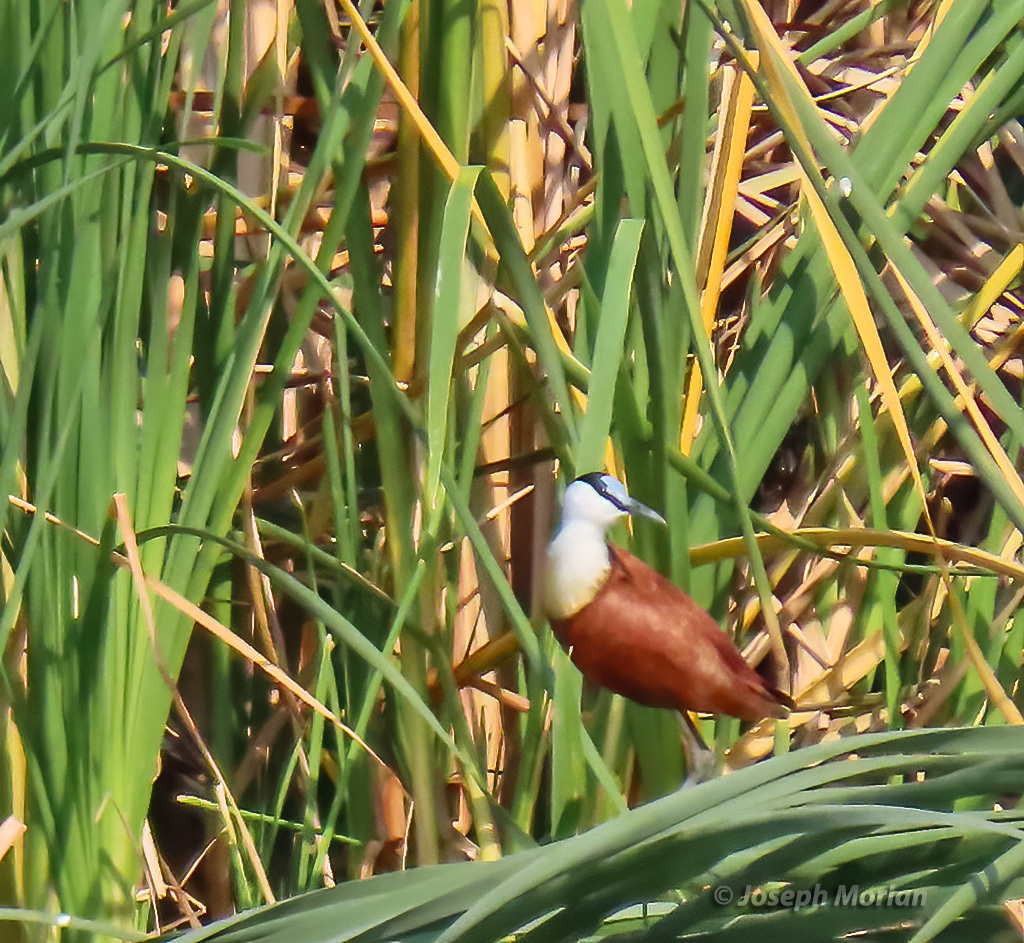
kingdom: Animalia
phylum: Chordata
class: Aves
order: Charadriiformes
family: Jacanidae
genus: Actophilornis
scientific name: Actophilornis africanus
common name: African jacana
